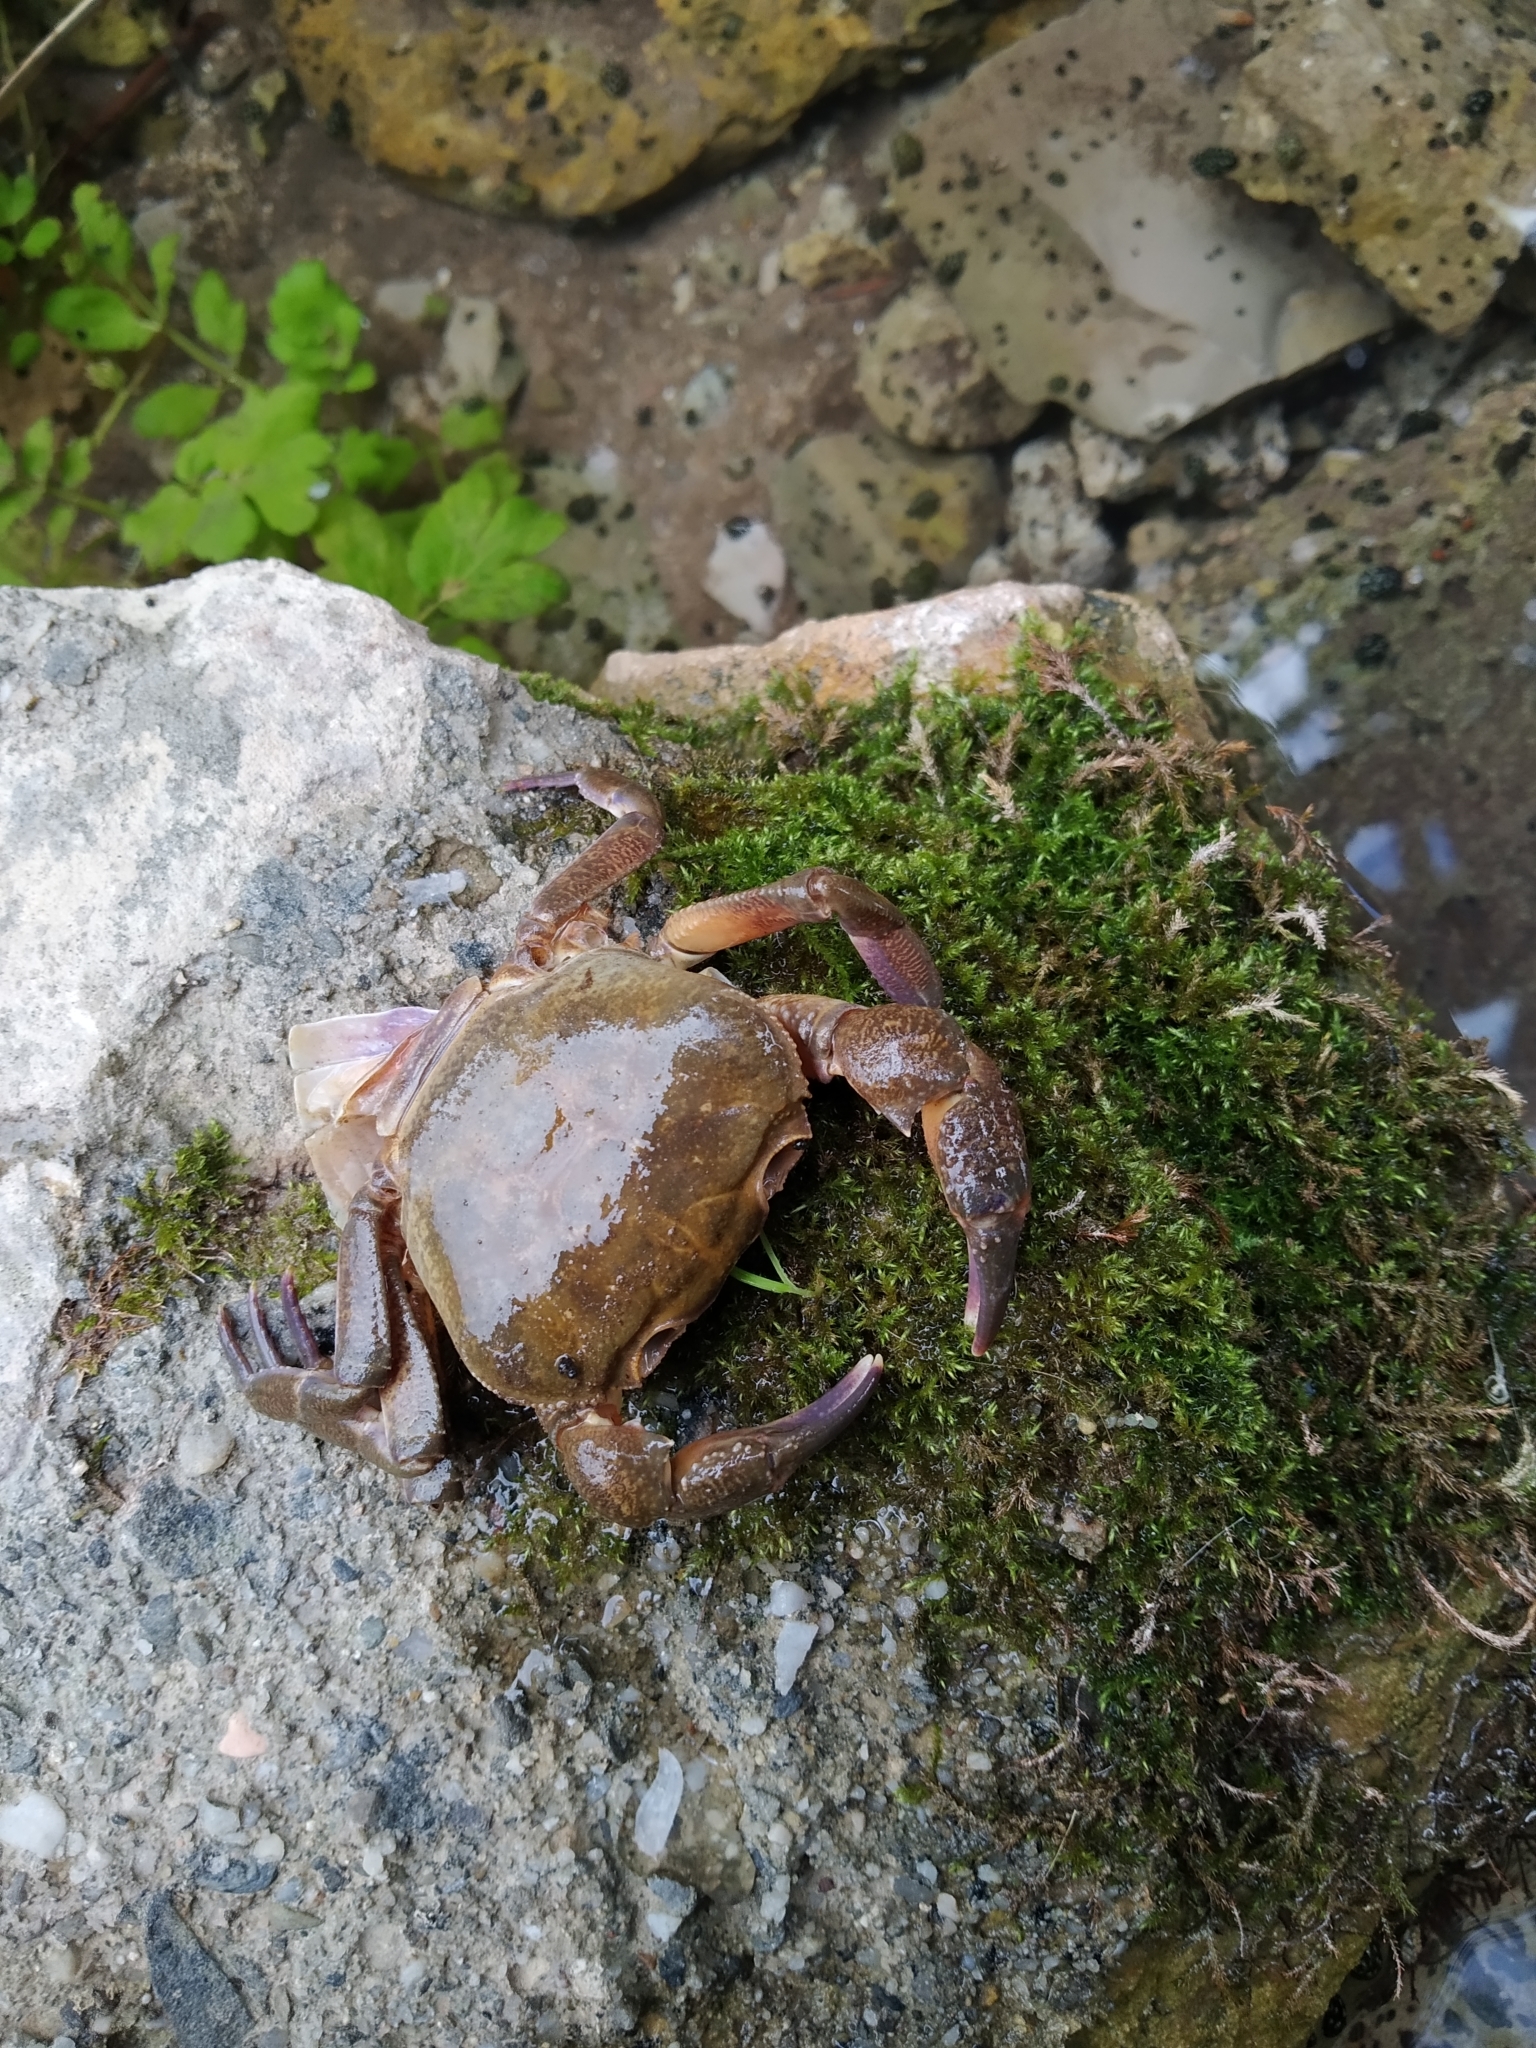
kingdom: Animalia
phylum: Arthropoda
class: Malacostraca
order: Decapoda
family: Potamidae
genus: Potamon
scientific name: Potamon ibericum
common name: Bieberstein's freshwater crab
